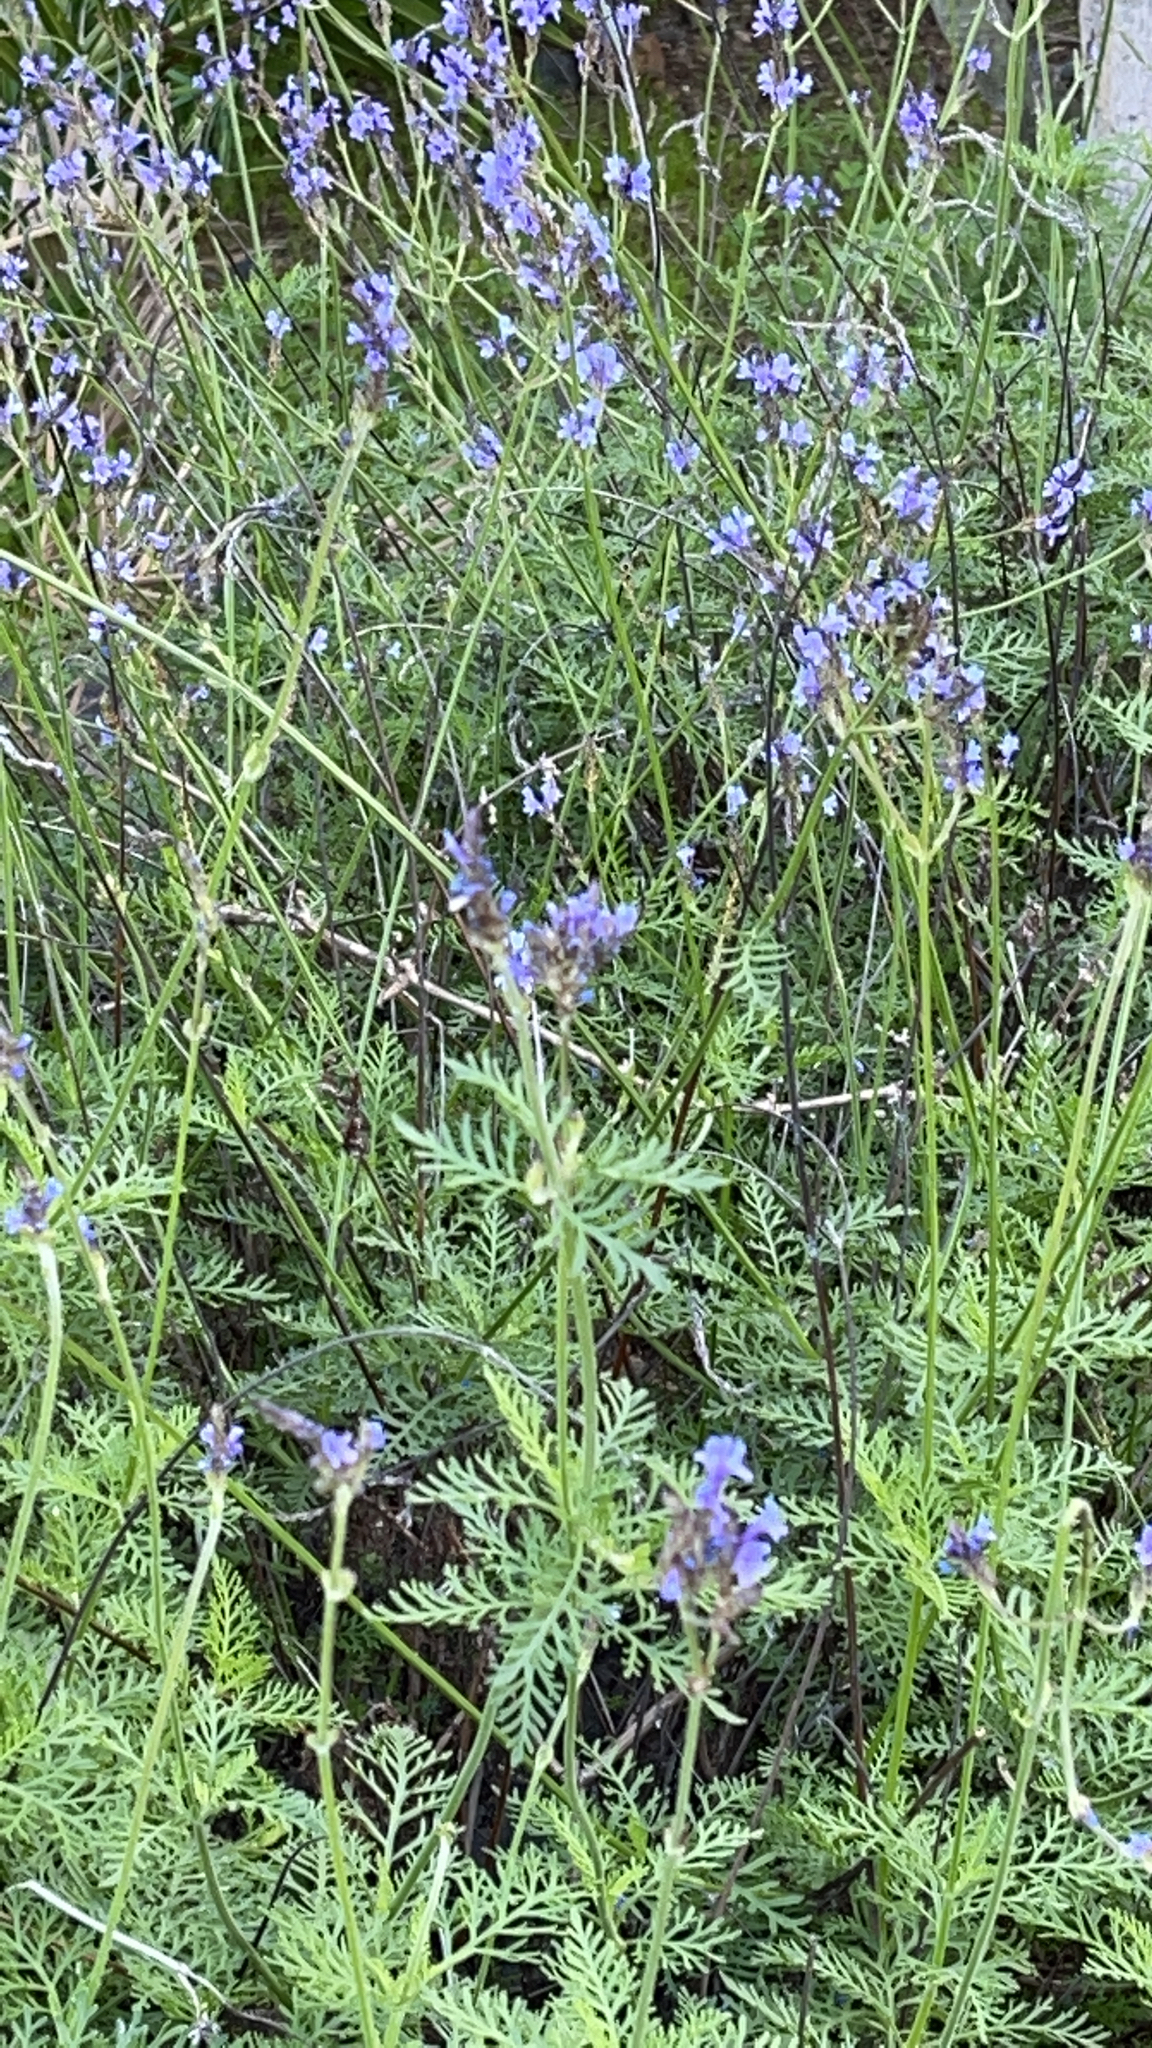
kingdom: Plantae
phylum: Tracheophyta
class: Magnoliopsida
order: Lamiales
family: Lamiaceae
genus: Lavandula
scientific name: Lavandula canariensis
